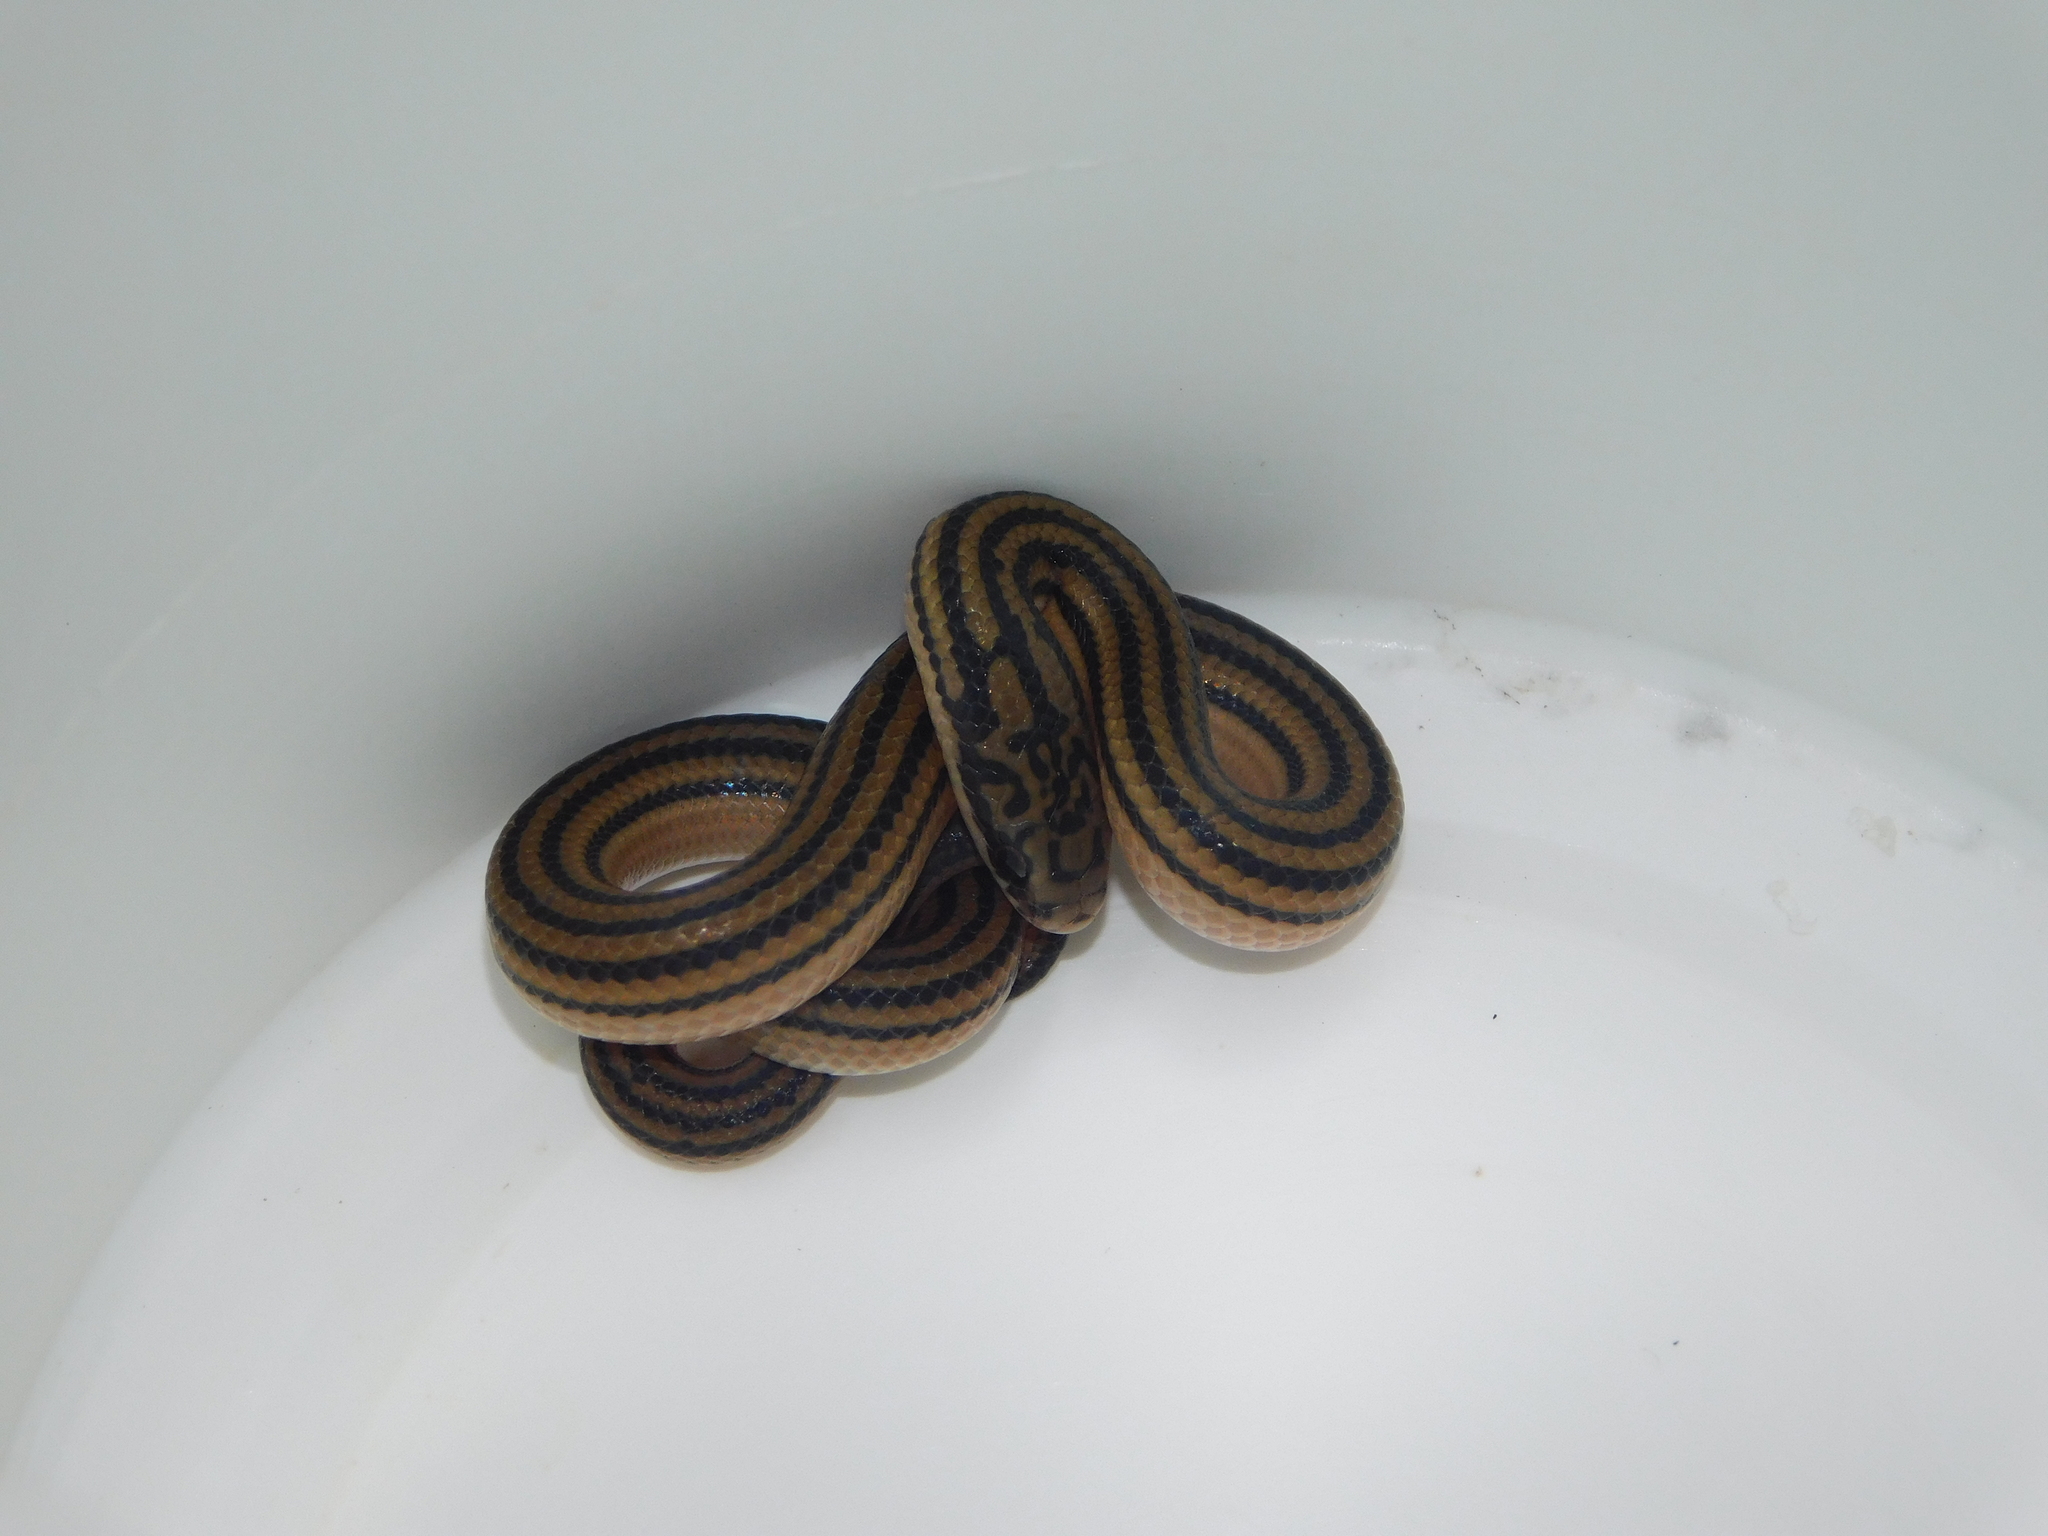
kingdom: Animalia
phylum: Chordata
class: Squamata
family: Colubridae
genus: Stenorrhina
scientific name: Stenorrhina freminvillei
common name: Blood snake
